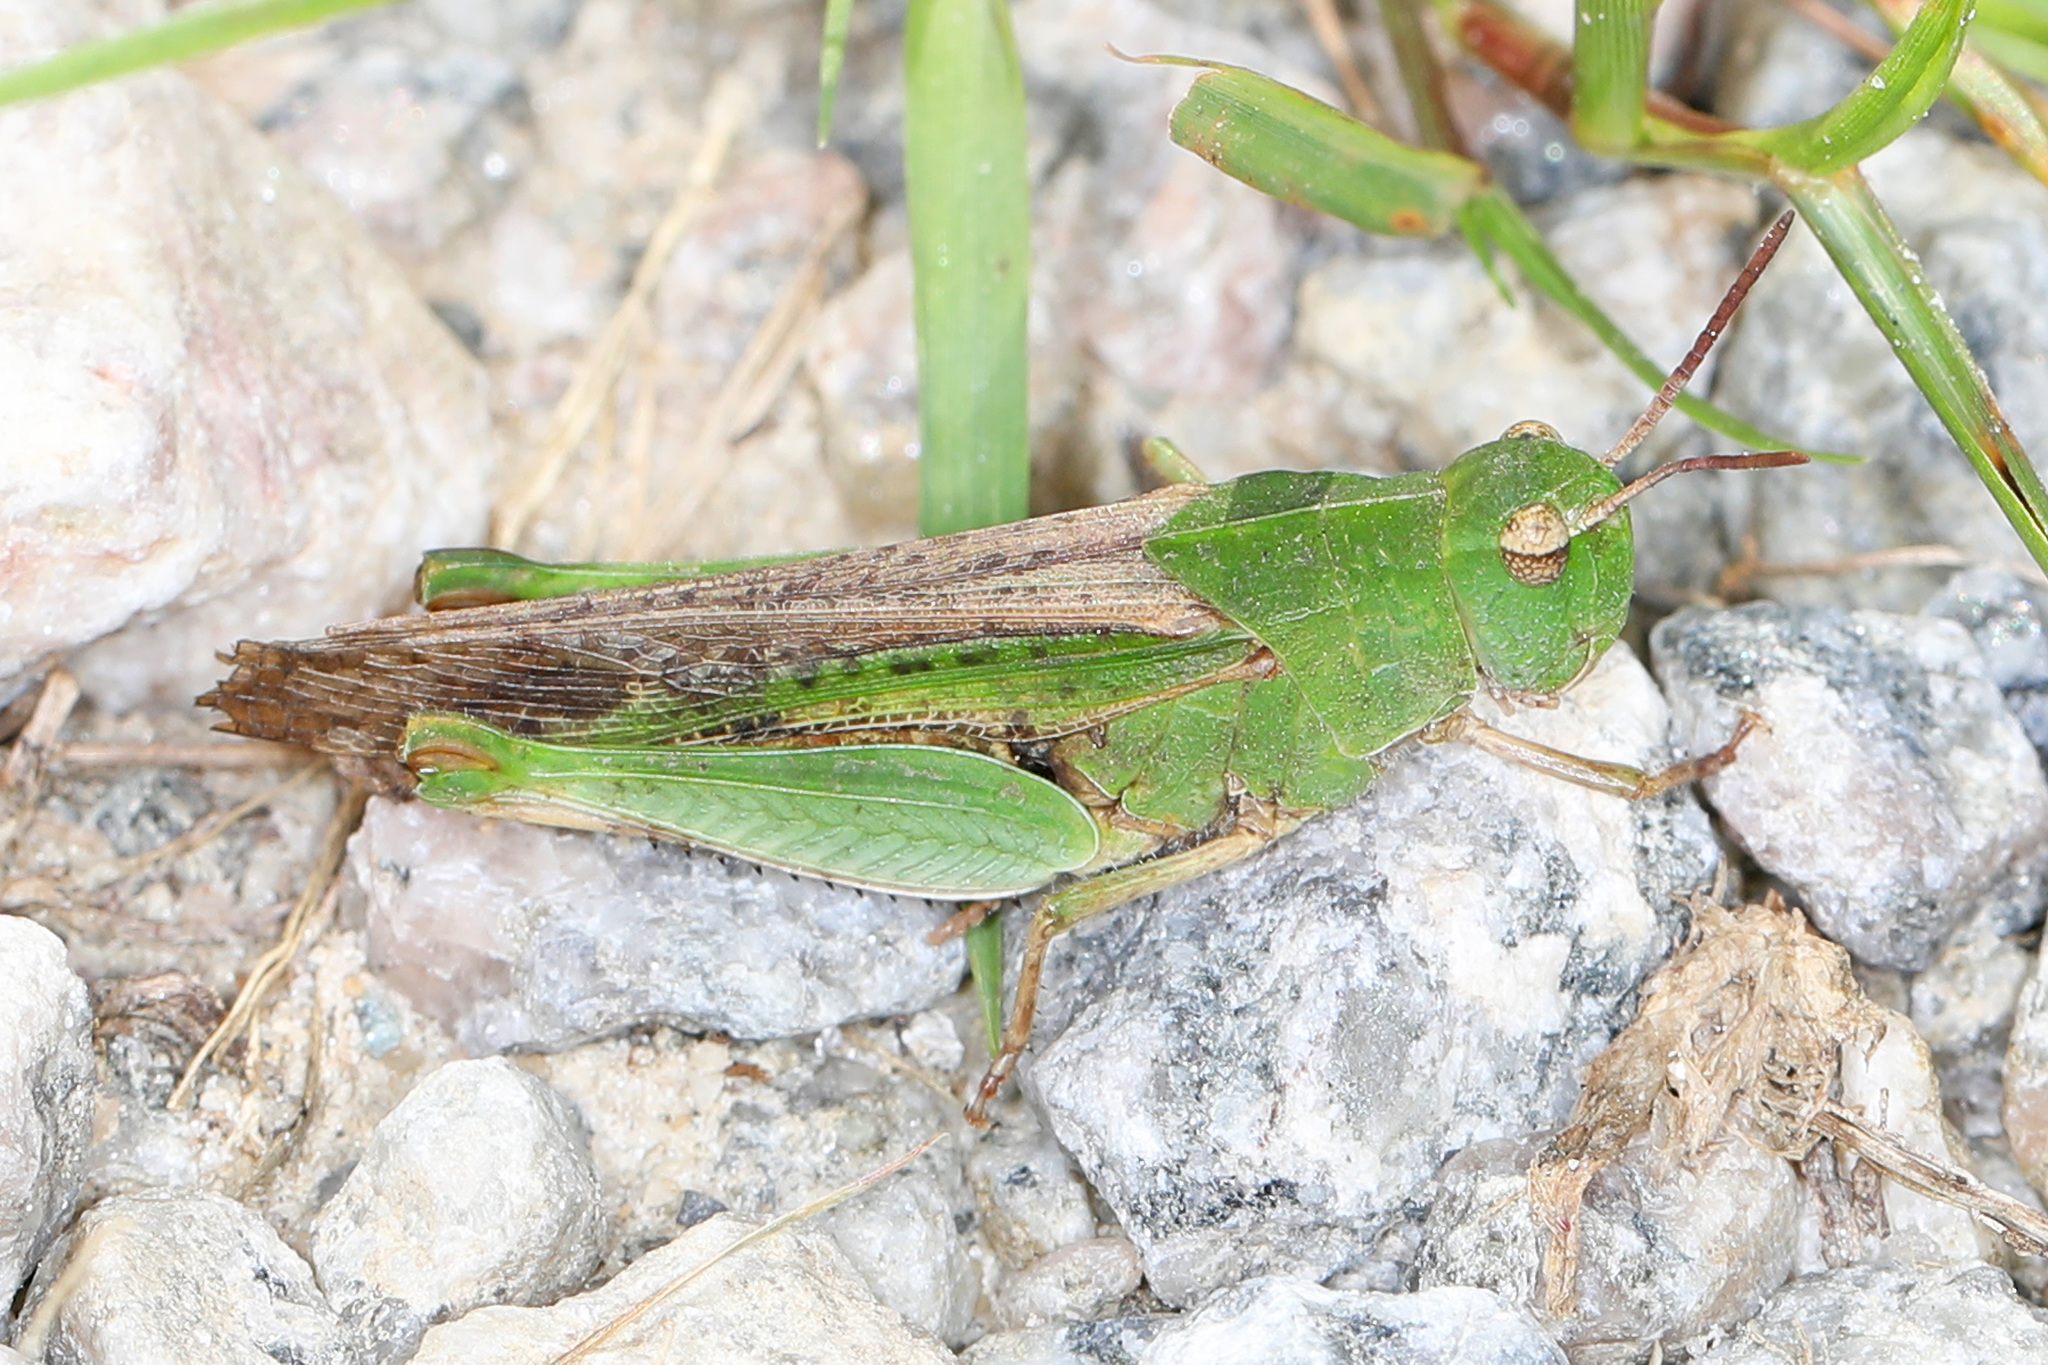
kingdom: Animalia
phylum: Arthropoda
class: Insecta
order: Orthoptera
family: Acrididae
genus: Chortophaga
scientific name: Chortophaga viridifasciata
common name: Green-striped grasshopper
